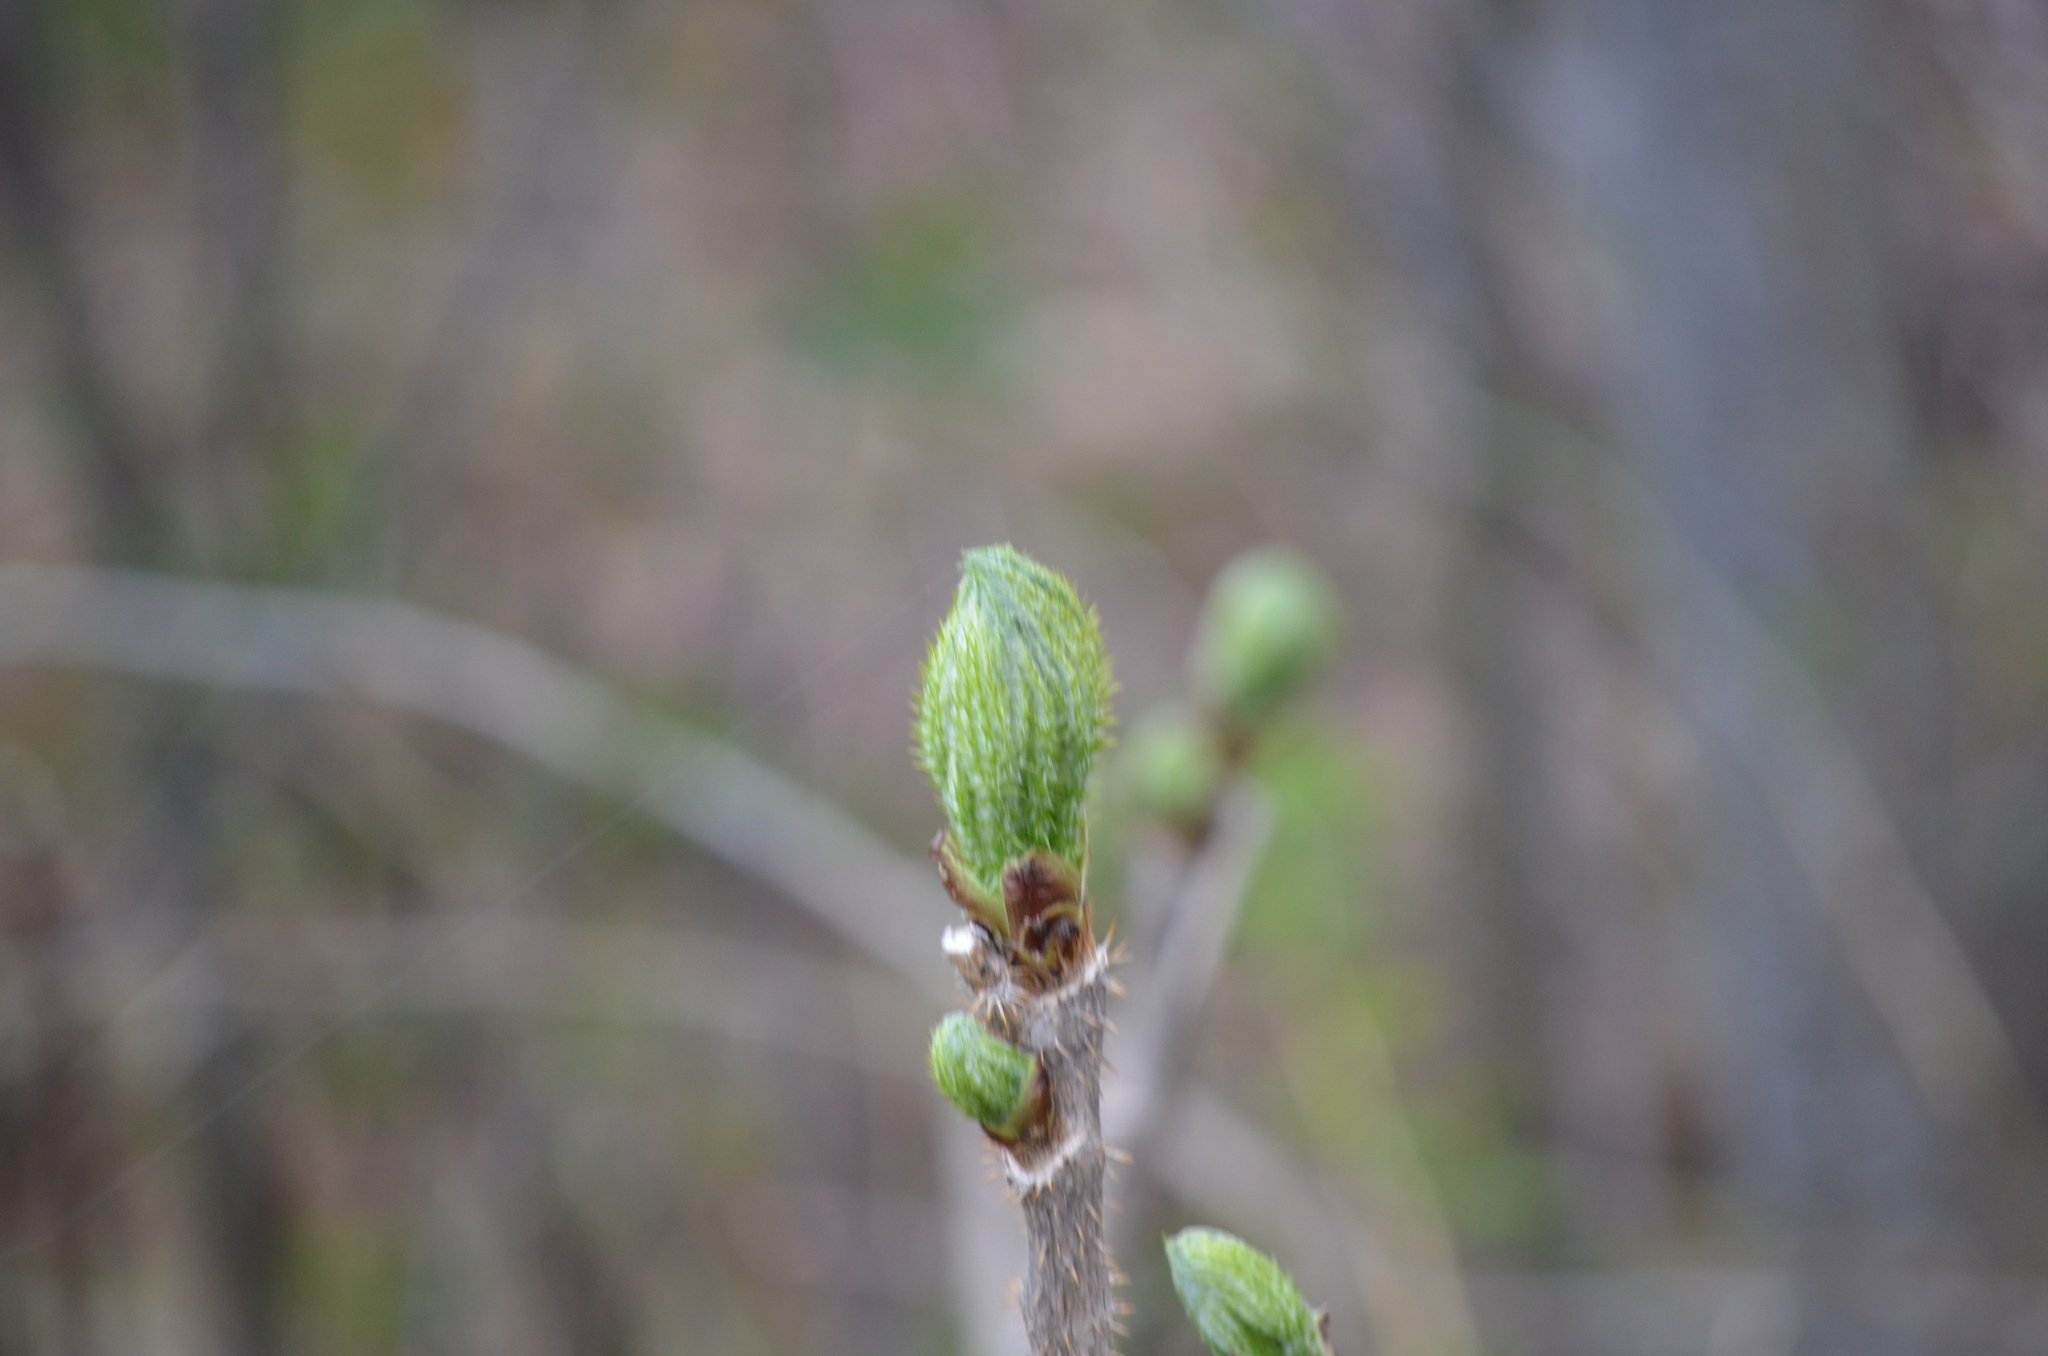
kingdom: Plantae
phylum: Tracheophyta
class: Magnoliopsida
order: Apiales
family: Araliaceae
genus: Oplopanax
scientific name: Oplopanax horridus
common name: Devil's walking-stick
